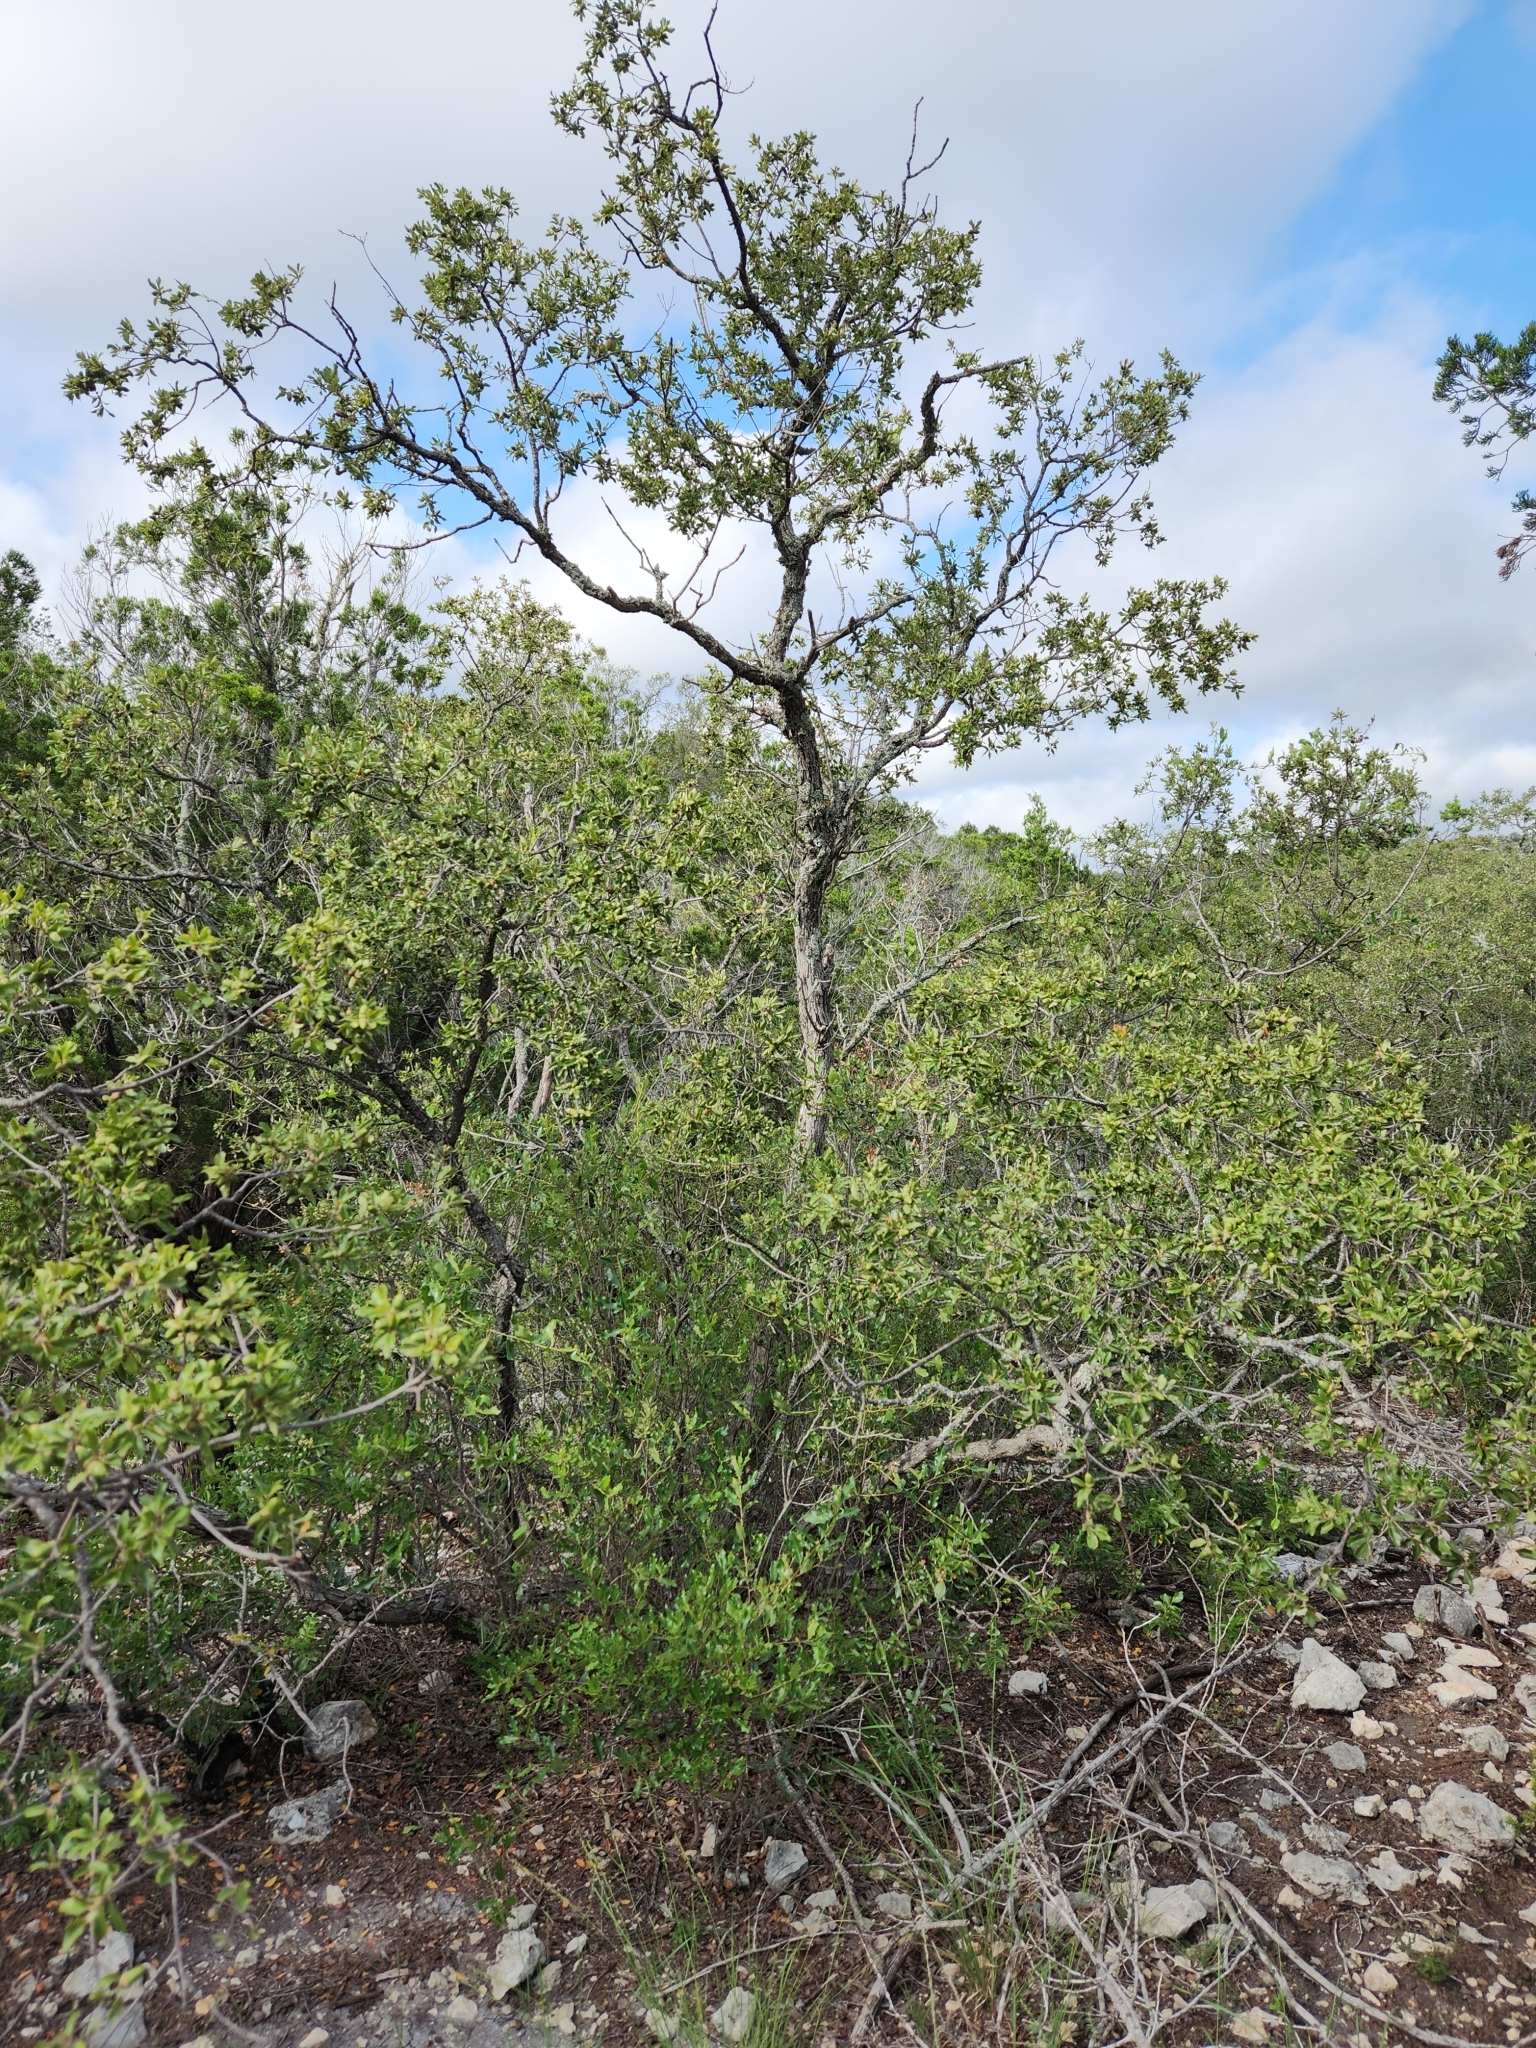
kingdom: Plantae
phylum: Tracheophyta
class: Magnoliopsida
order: Fagales
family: Fagaceae
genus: Quercus
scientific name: Quercus vaseyana
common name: Sandpaper oak
